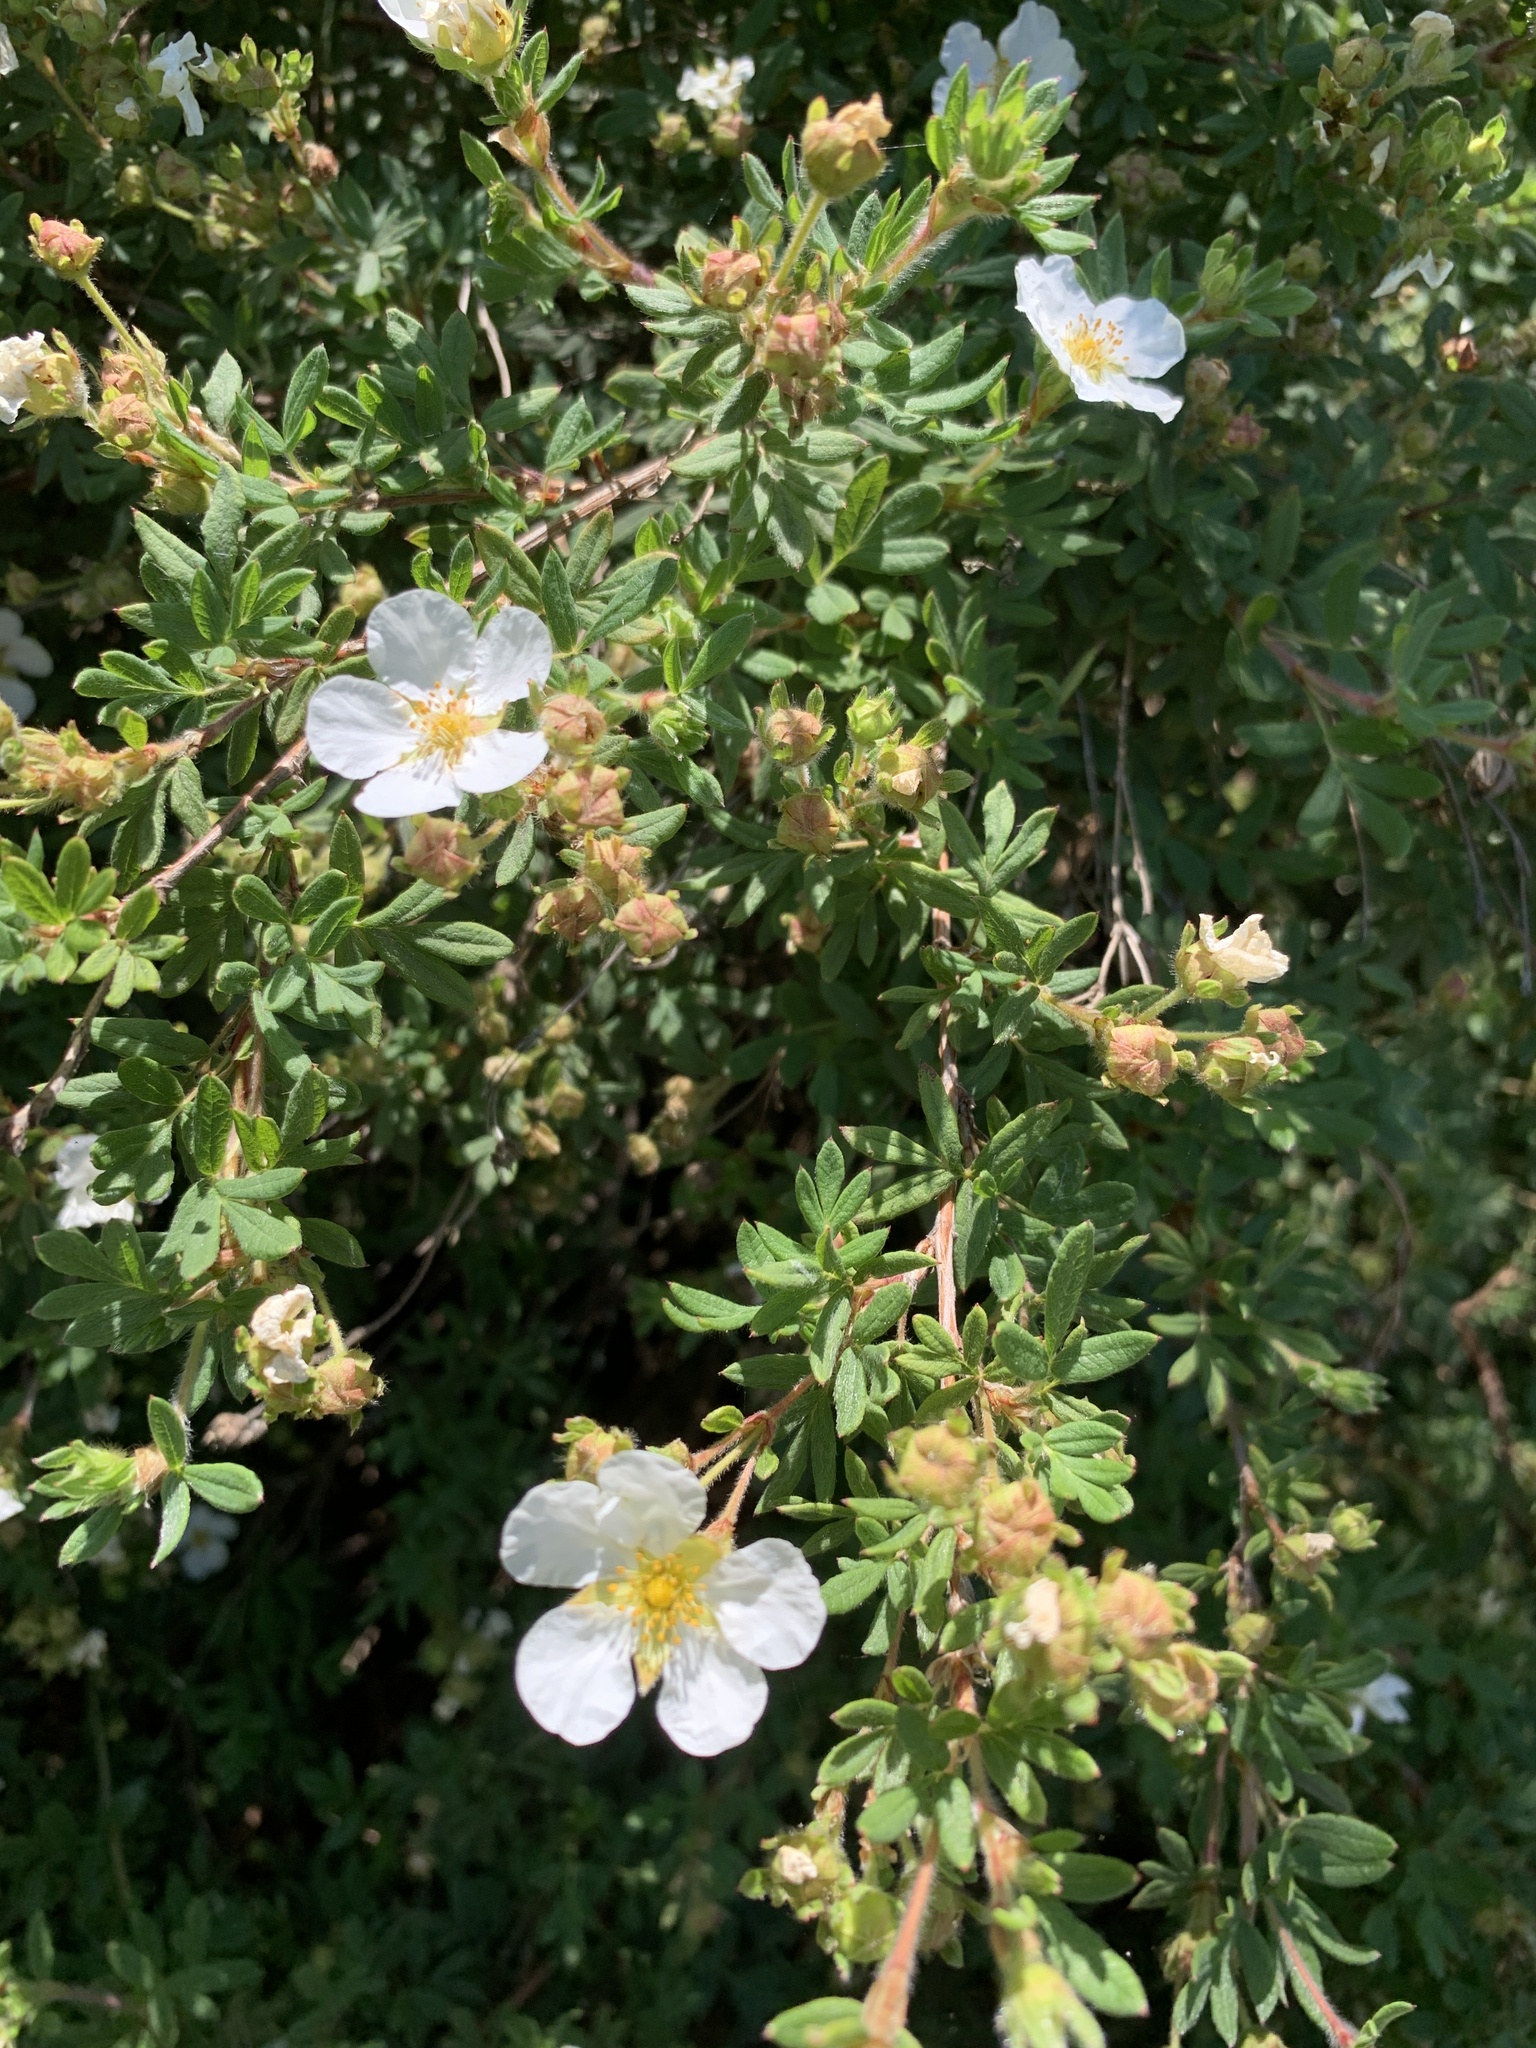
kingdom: Plantae
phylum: Tracheophyta
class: Magnoliopsida
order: Rosales
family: Rosaceae
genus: Dasiphora
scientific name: Dasiphora fruticosa
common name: Shrubby cinquefoil
